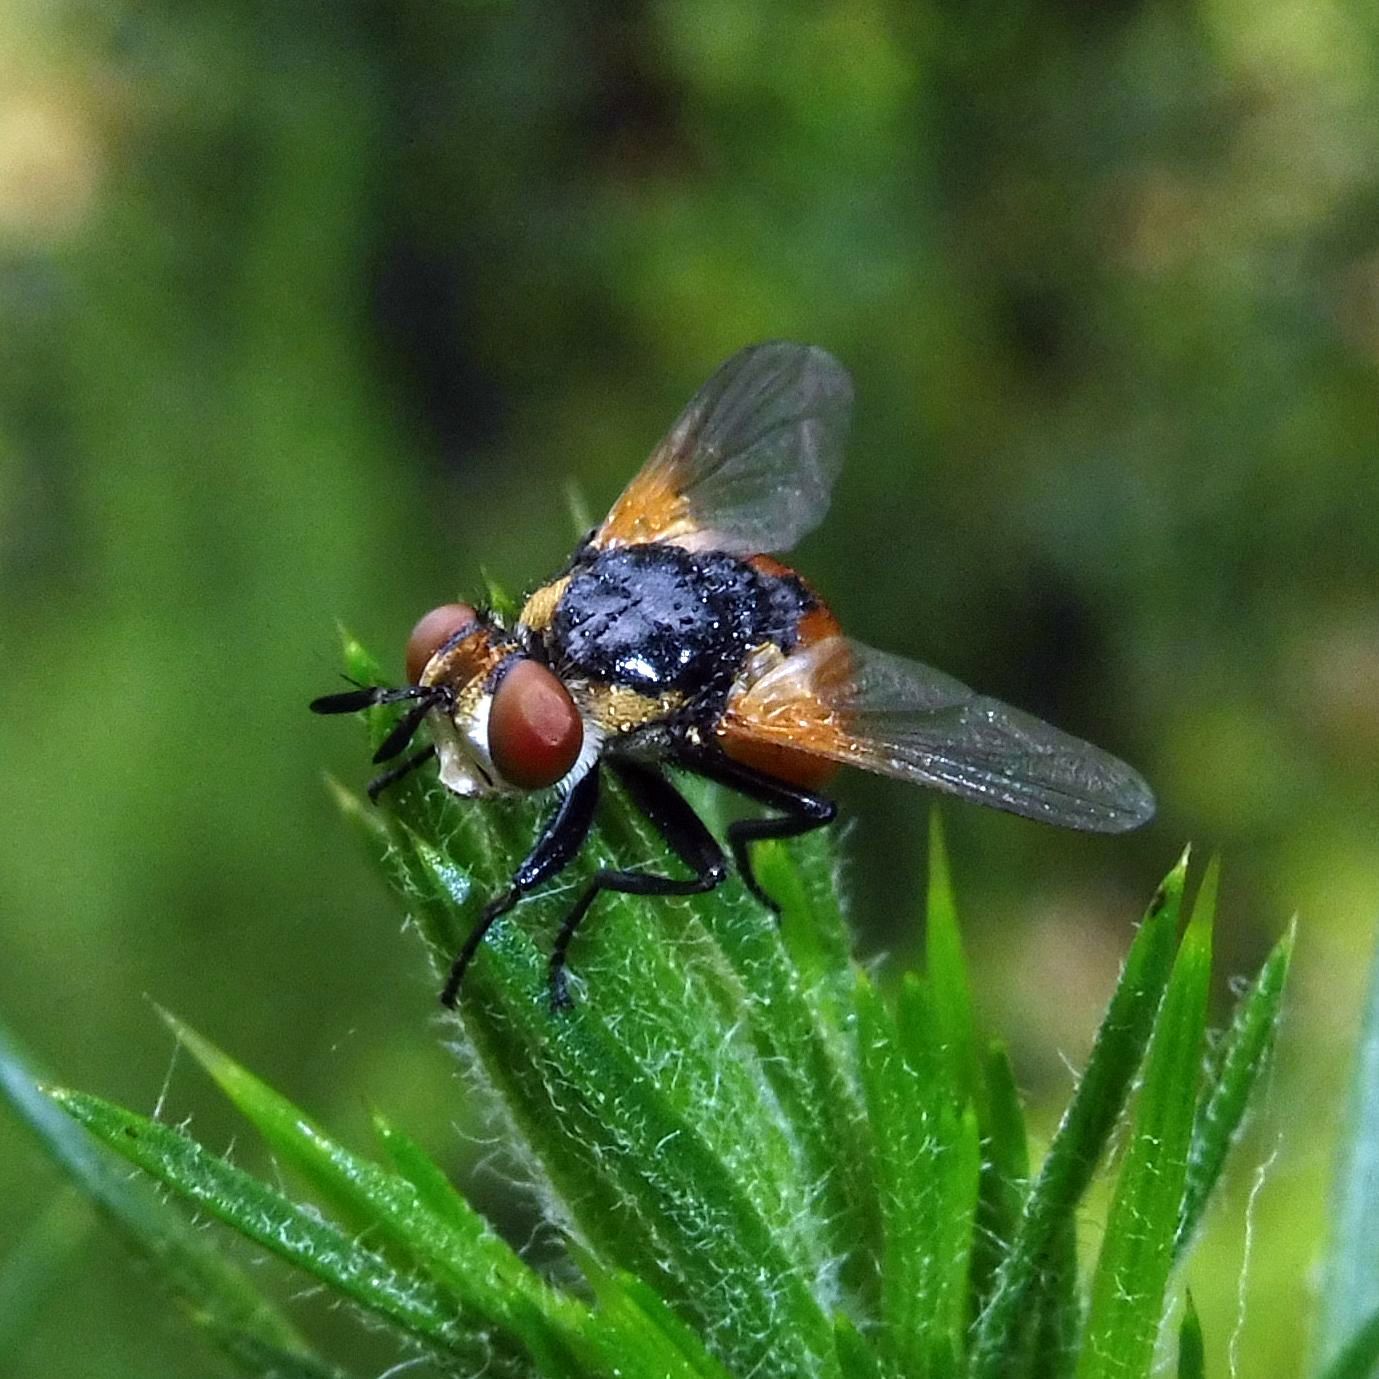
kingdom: Animalia
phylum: Arthropoda
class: Insecta
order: Diptera
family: Tachinidae
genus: Gymnosoma
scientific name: Gymnosoma rotundatum
